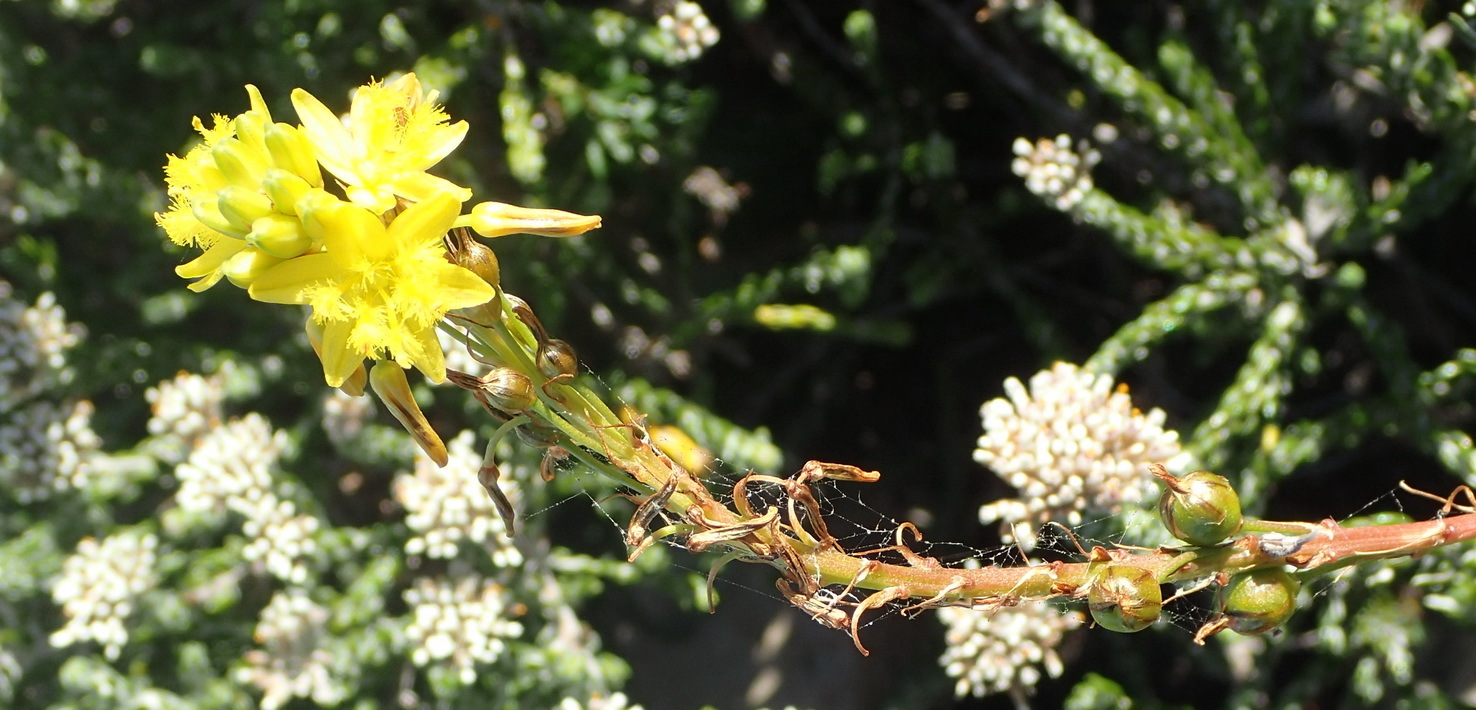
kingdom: Plantae
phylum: Tracheophyta
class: Liliopsida
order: Asparagales
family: Asphodelaceae
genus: Bulbine
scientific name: Bulbine lagopus
